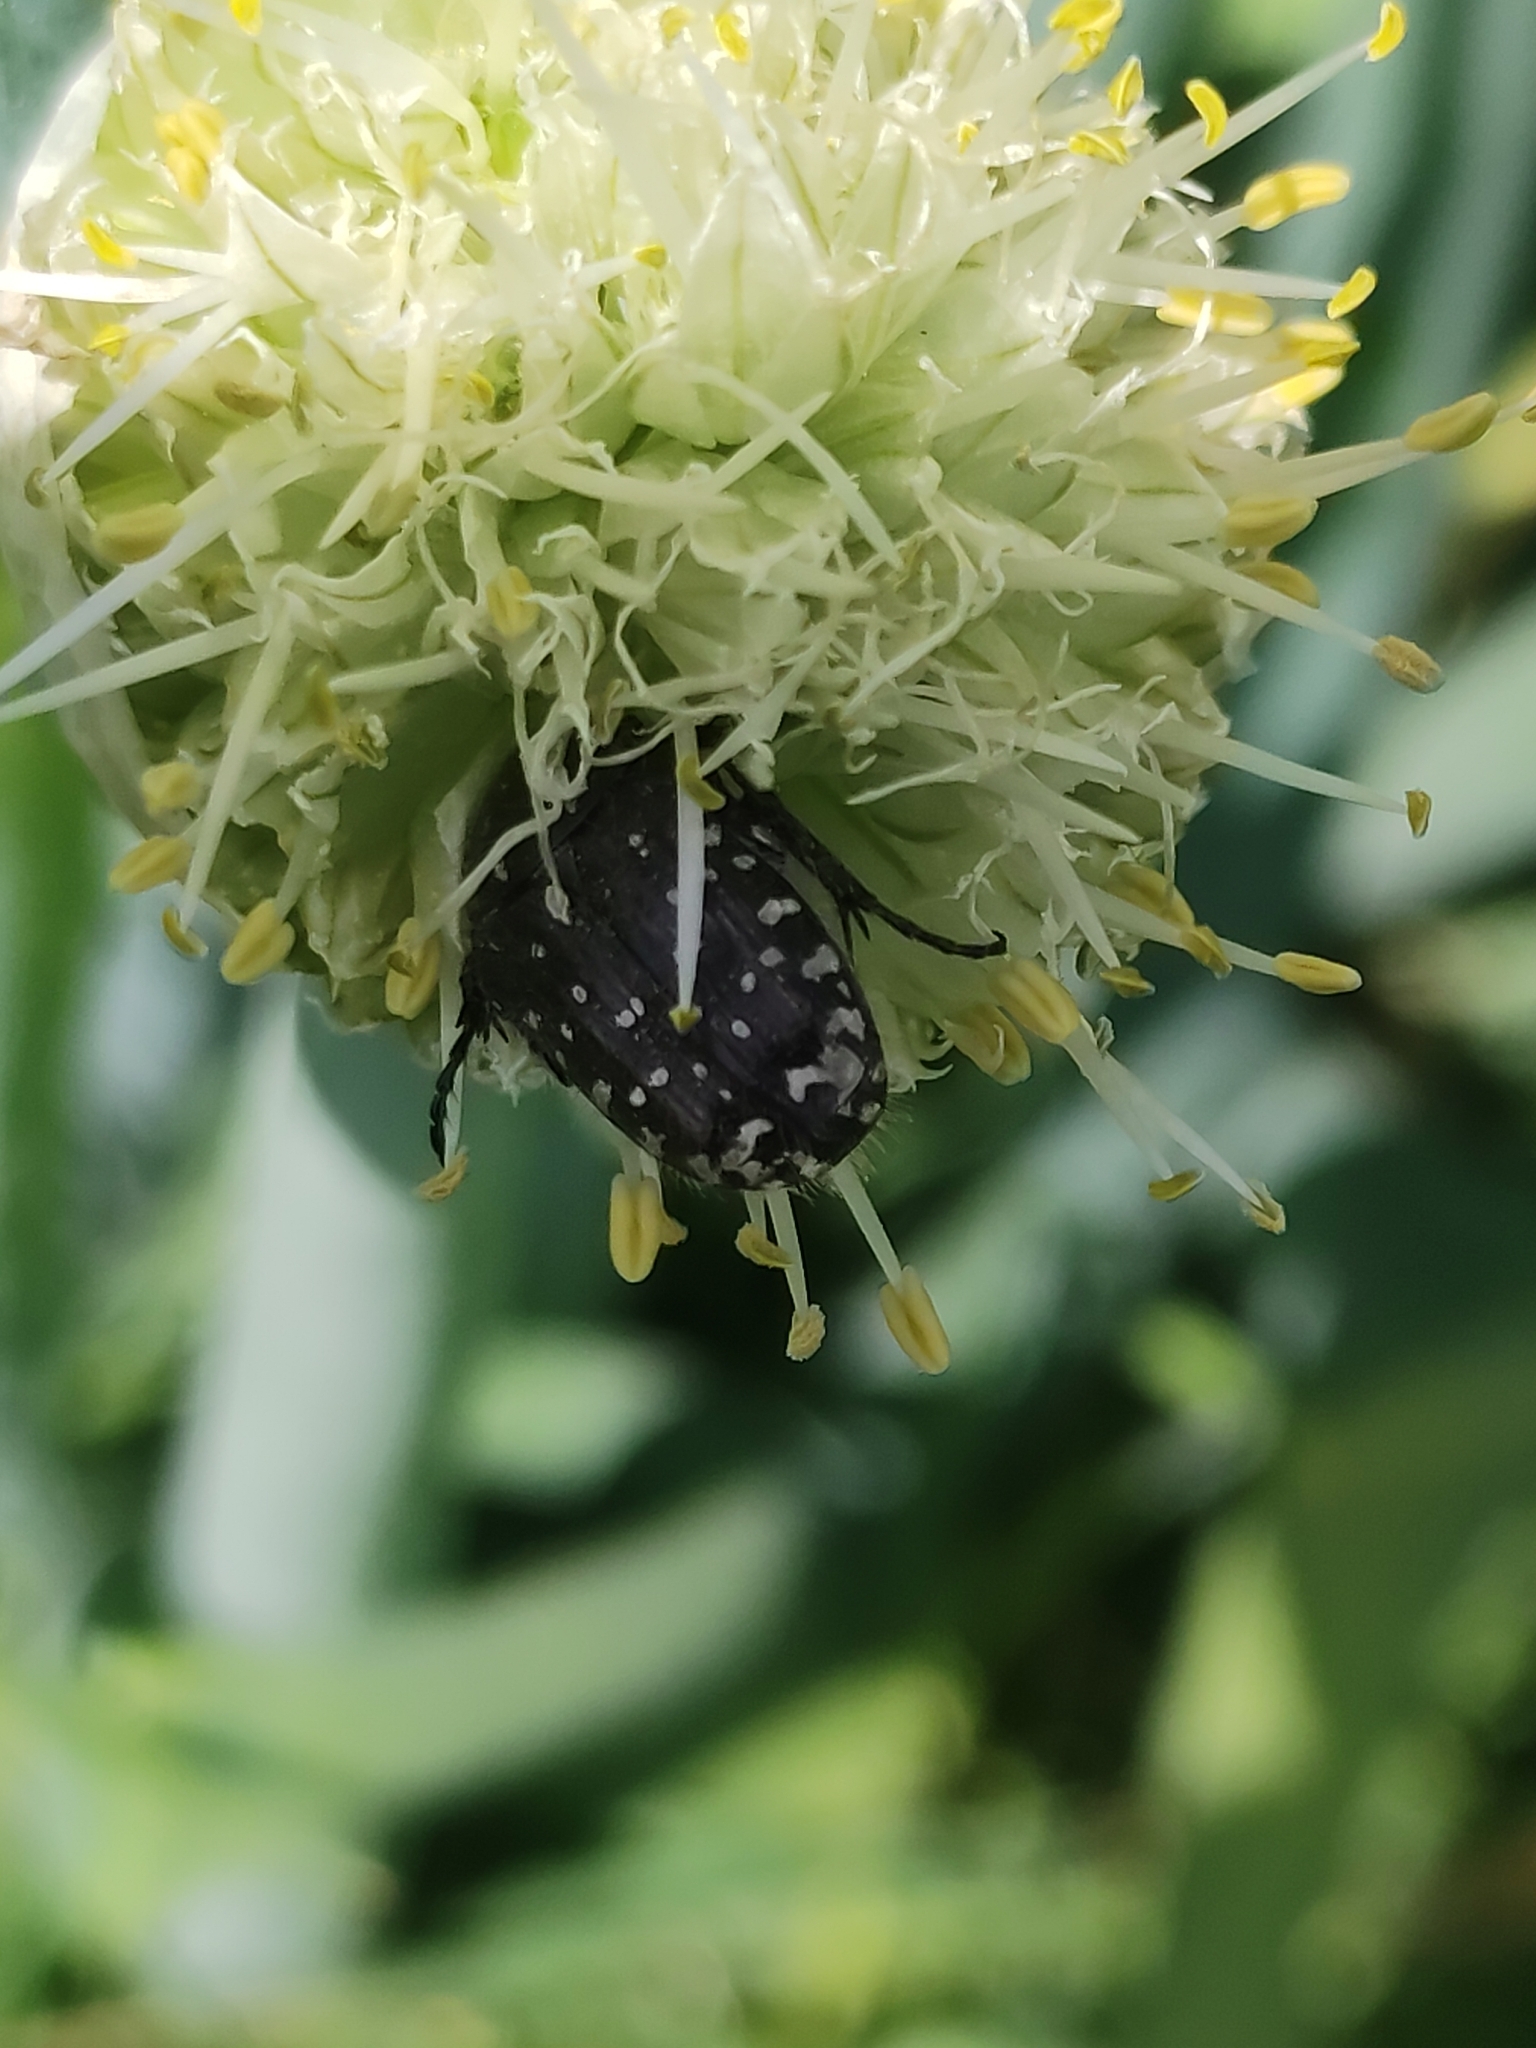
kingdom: Animalia
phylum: Arthropoda
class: Insecta
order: Coleoptera
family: Scarabaeidae
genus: Oxythyrea
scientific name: Oxythyrea funesta
